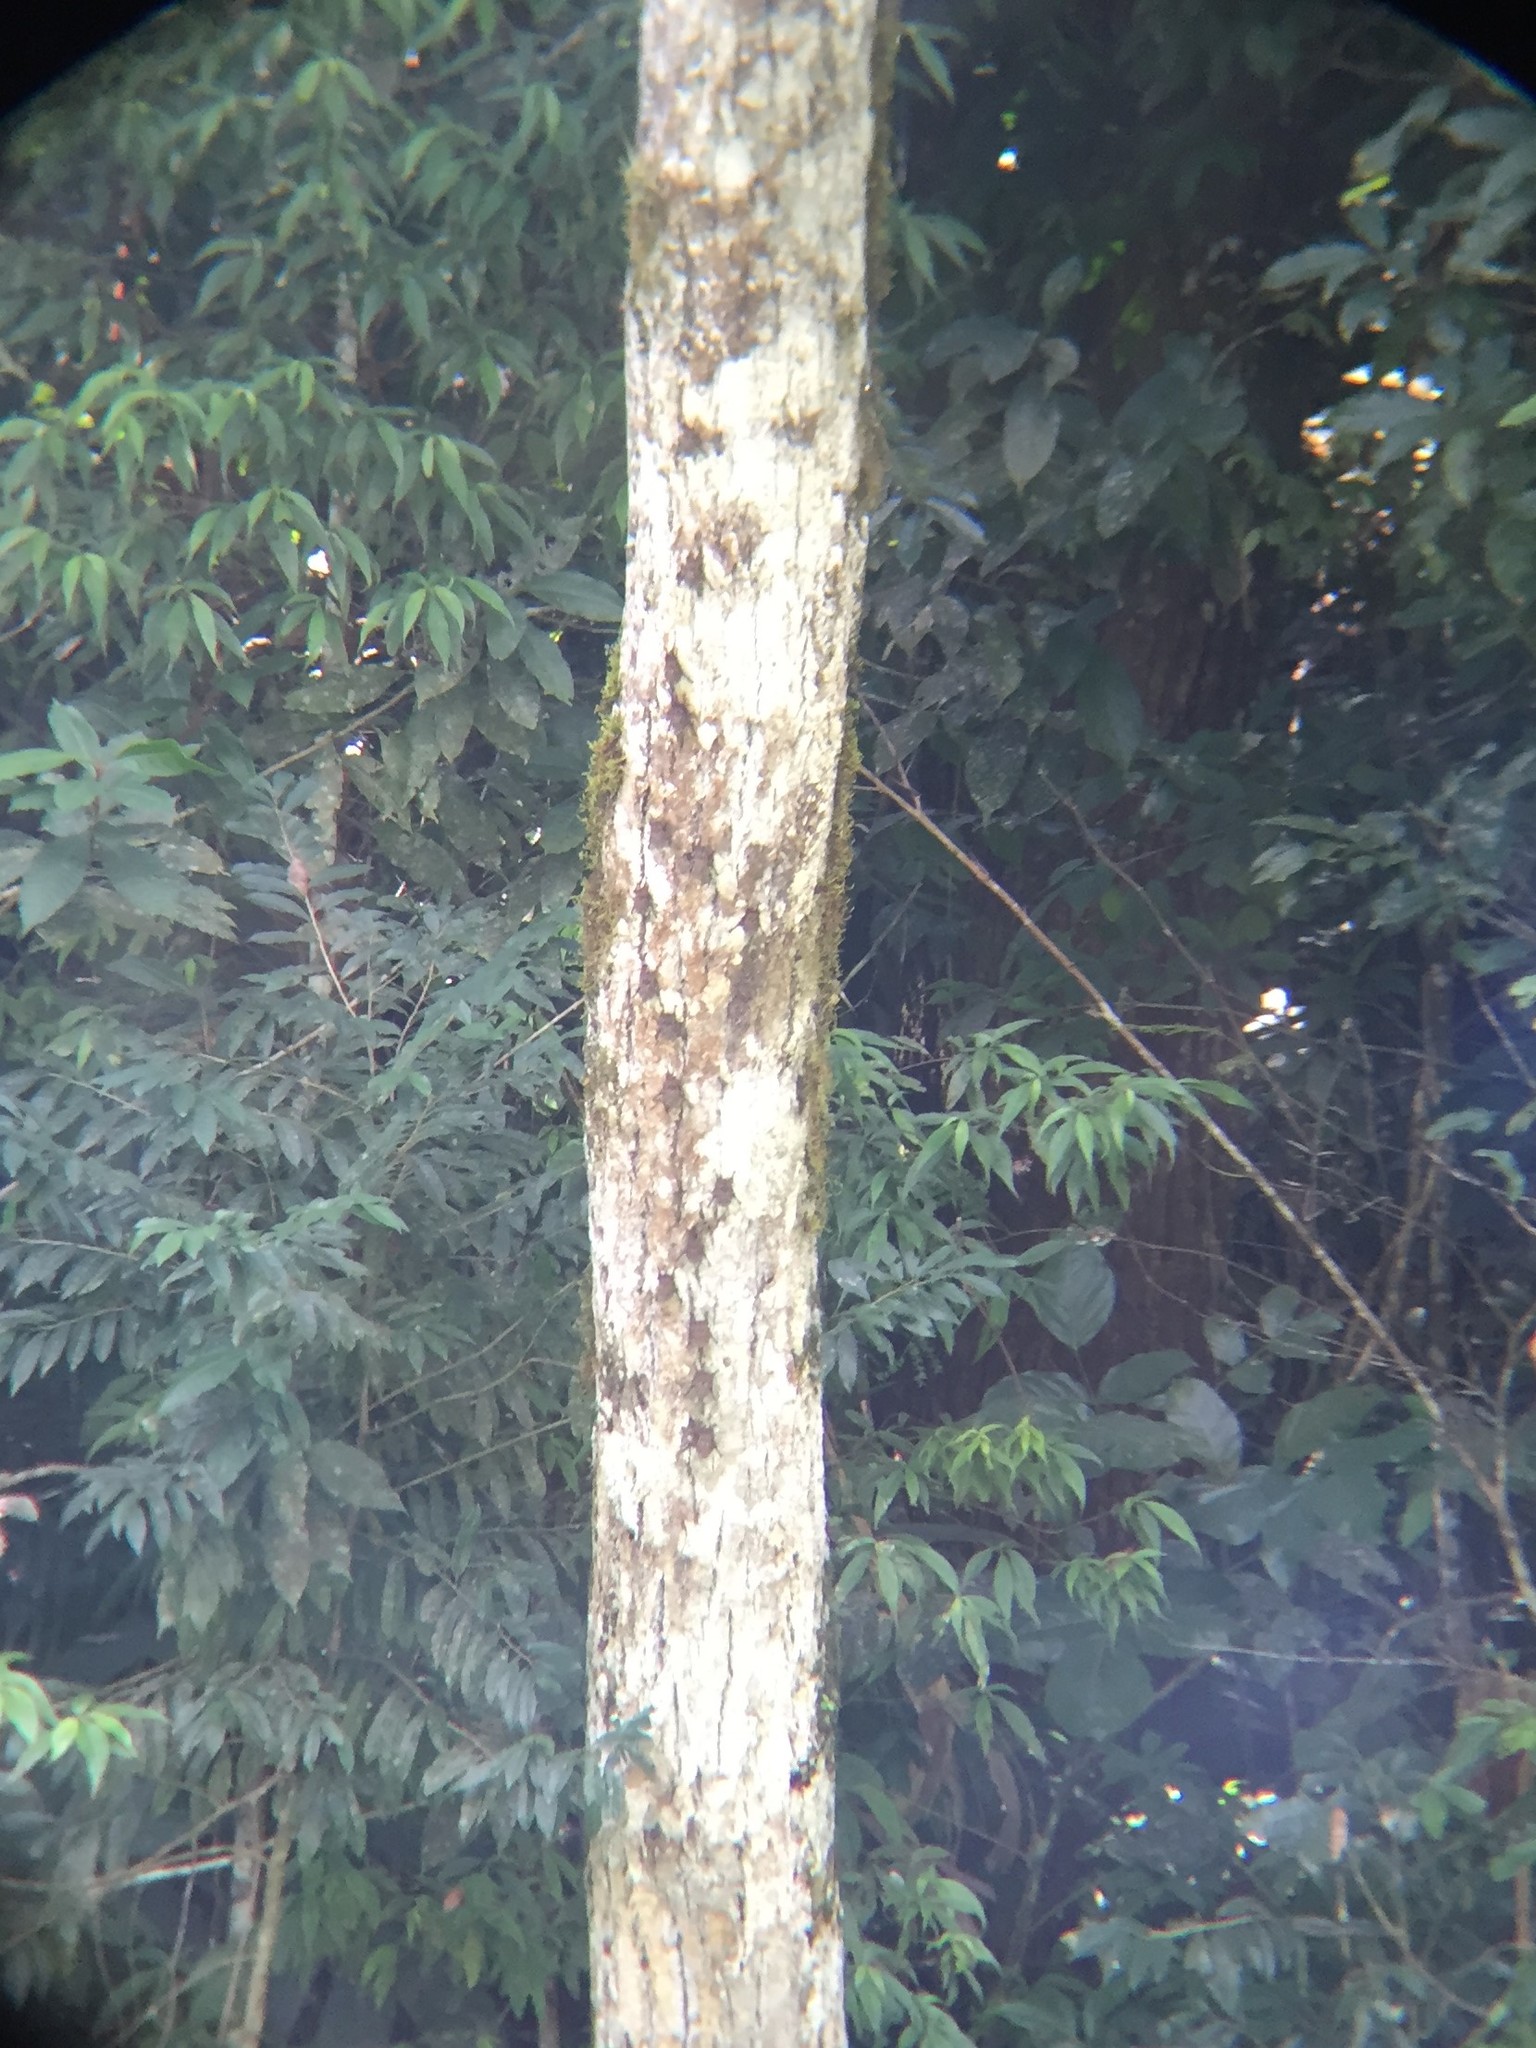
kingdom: Animalia
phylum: Chordata
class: Mammalia
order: Chiroptera
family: Emballonuridae
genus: Rhynchonycteris
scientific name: Rhynchonycteris naso
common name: Proboscis bat
